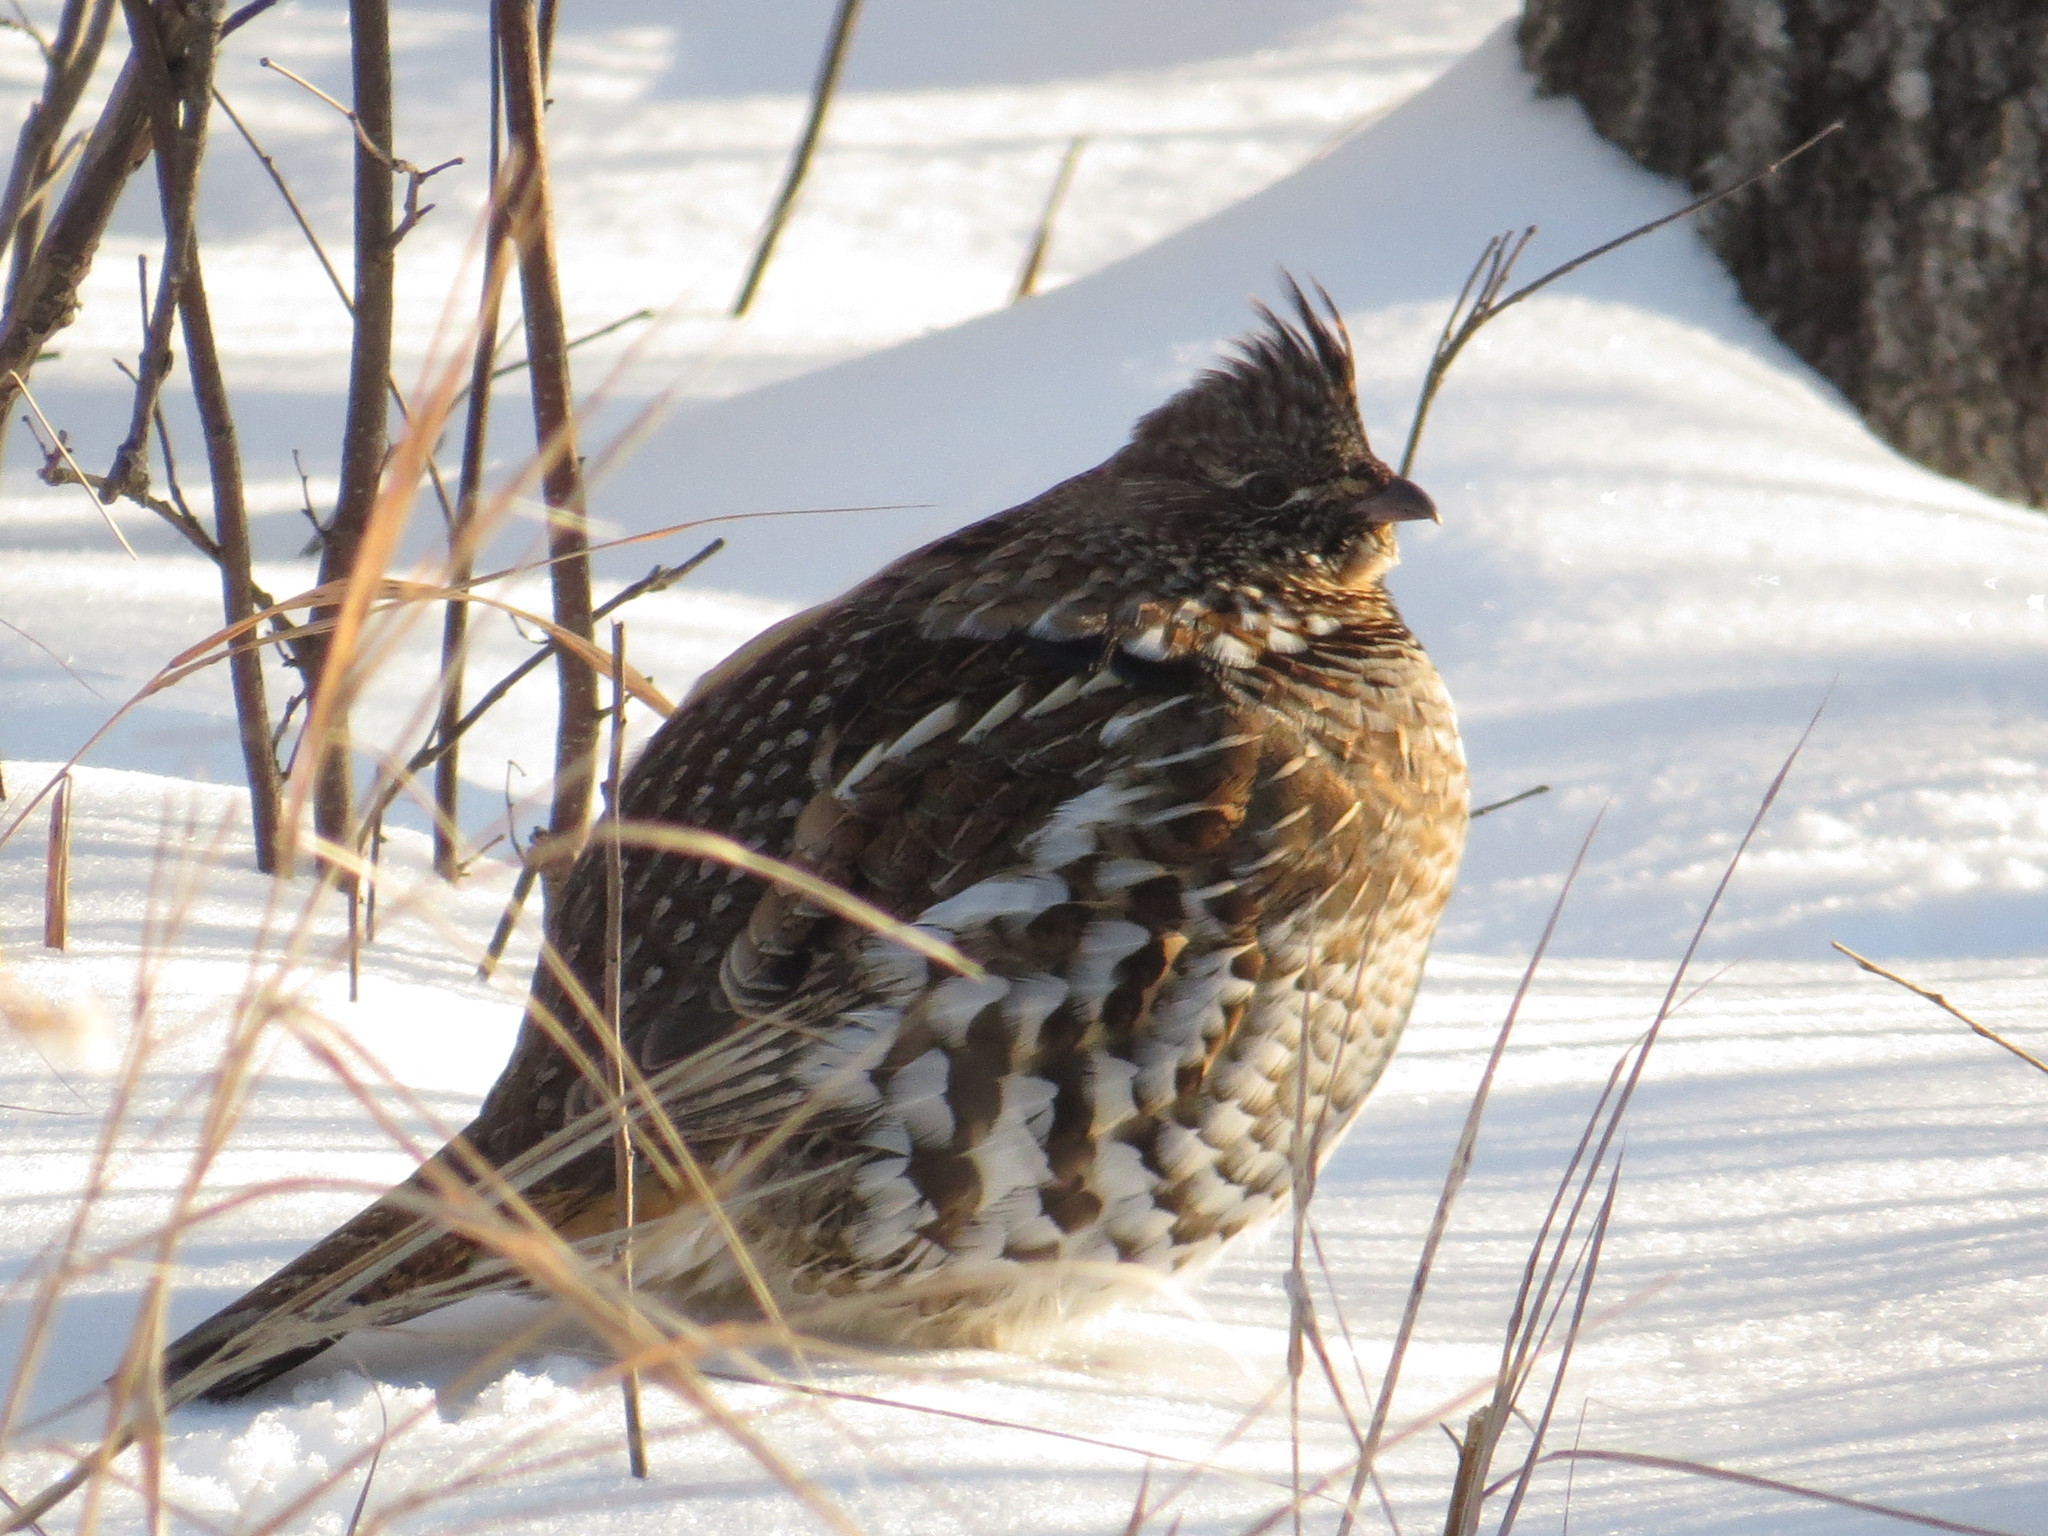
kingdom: Animalia
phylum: Chordata
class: Aves
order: Galliformes
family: Phasianidae
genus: Bonasa
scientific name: Bonasa umbellus
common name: Ruffed grouse
